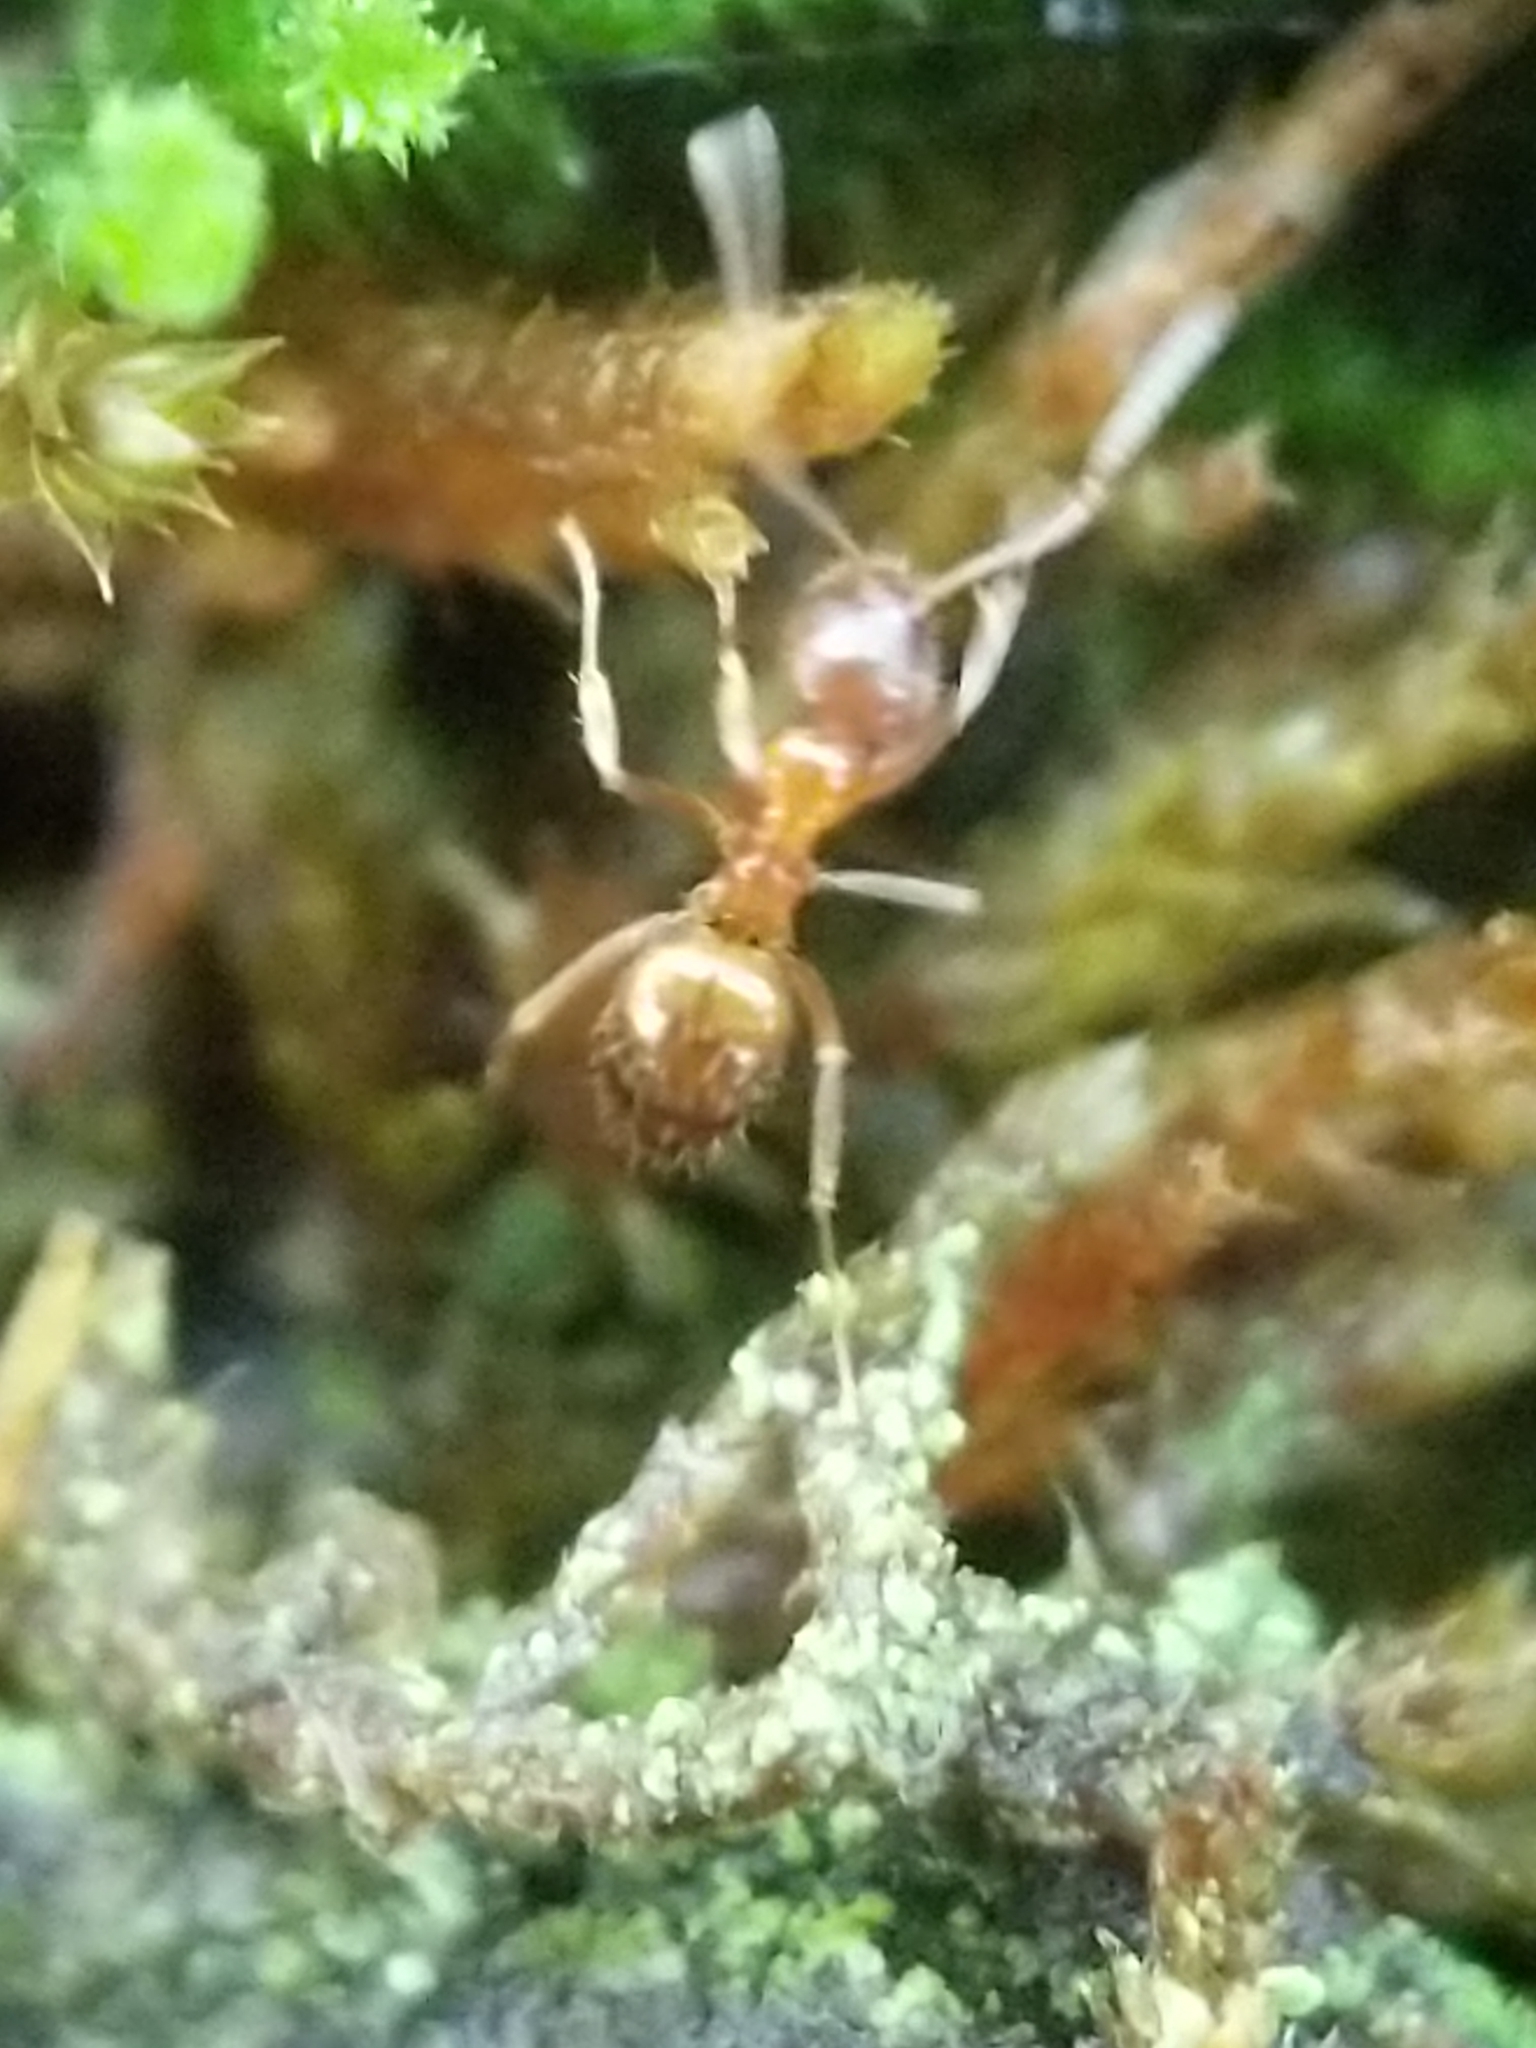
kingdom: Animalia
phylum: Arthropoda
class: Insecta
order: Hymenoptera
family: Formicidae
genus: Paratrechina
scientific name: Paratrechina flavipes
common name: Eastern asian formicine ant
